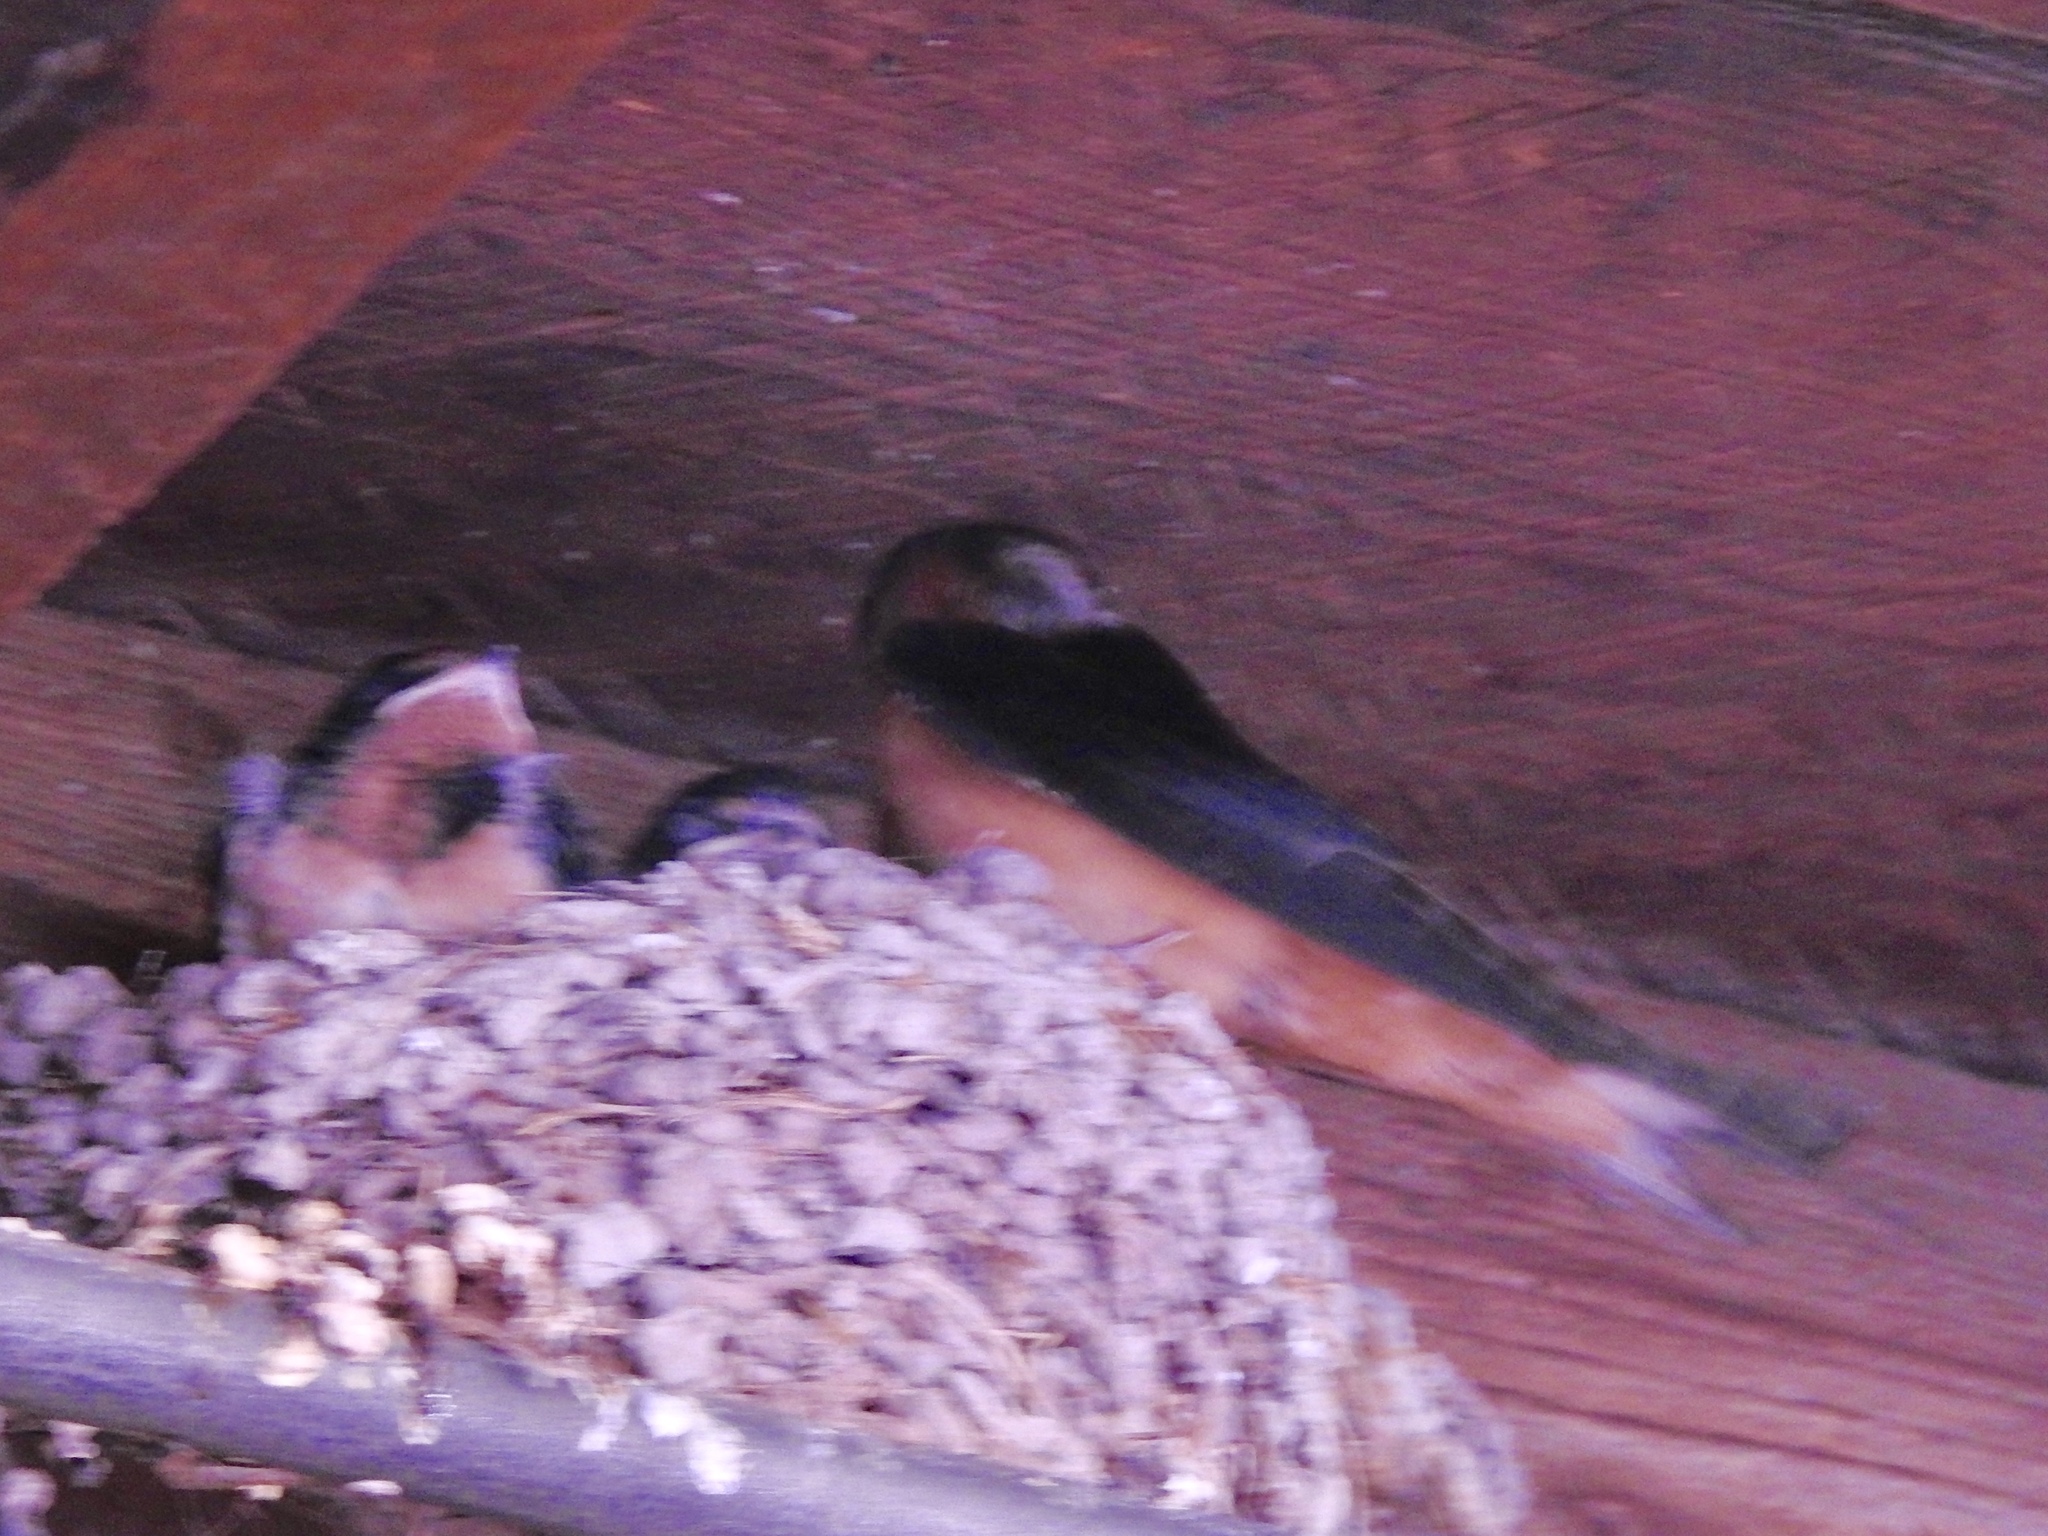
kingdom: Animalia
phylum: Chordata
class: Aves
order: Passeriformes
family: Hirundinidae
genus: Hirundo
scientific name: Hirundo rustica
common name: Barn swallow
